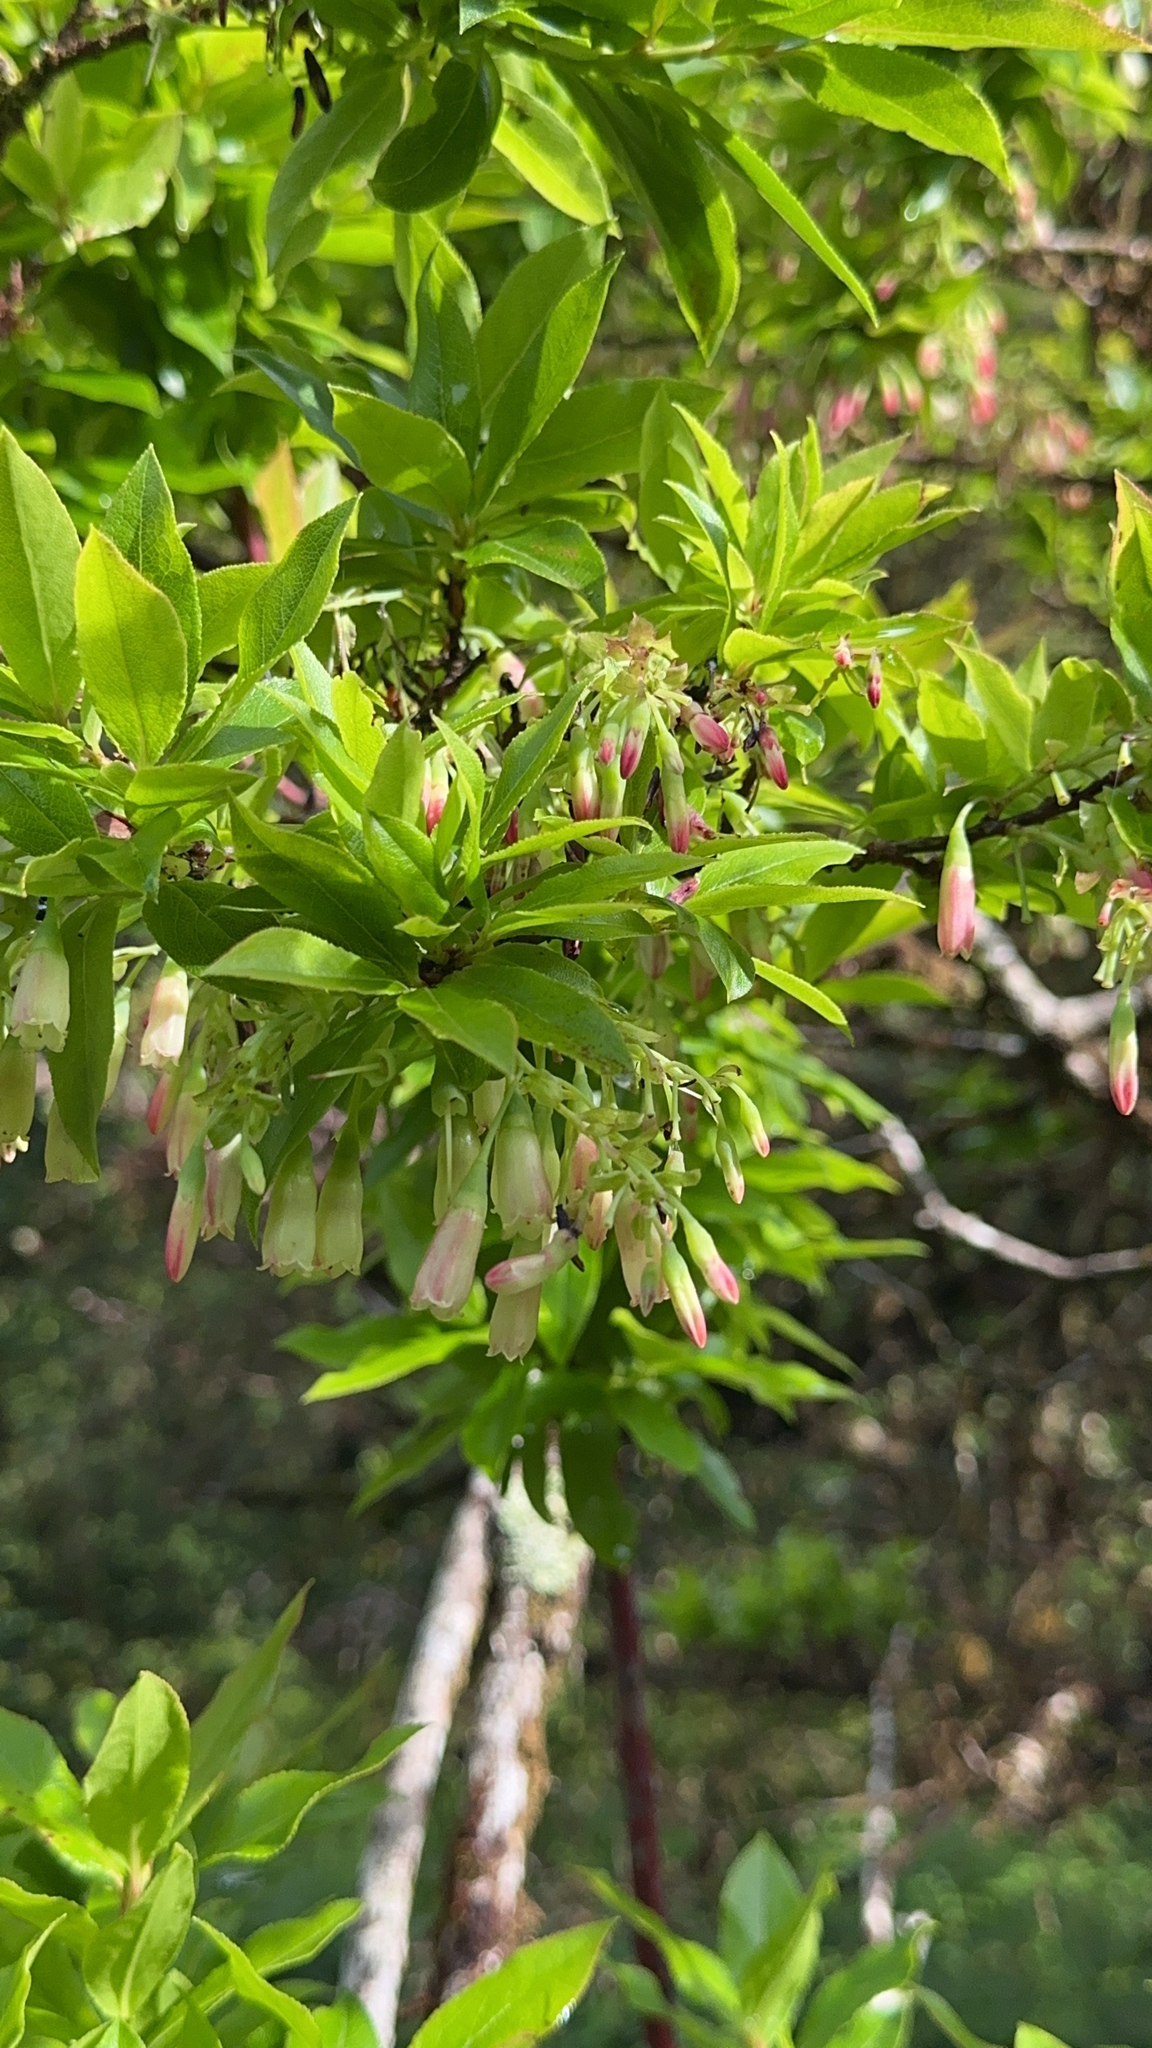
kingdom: Plantae
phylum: Tracheophyta
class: Magnoliopsida
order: Ericales
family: Ericaceae
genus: Vaccinium
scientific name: Vaccinium cylindraceum
